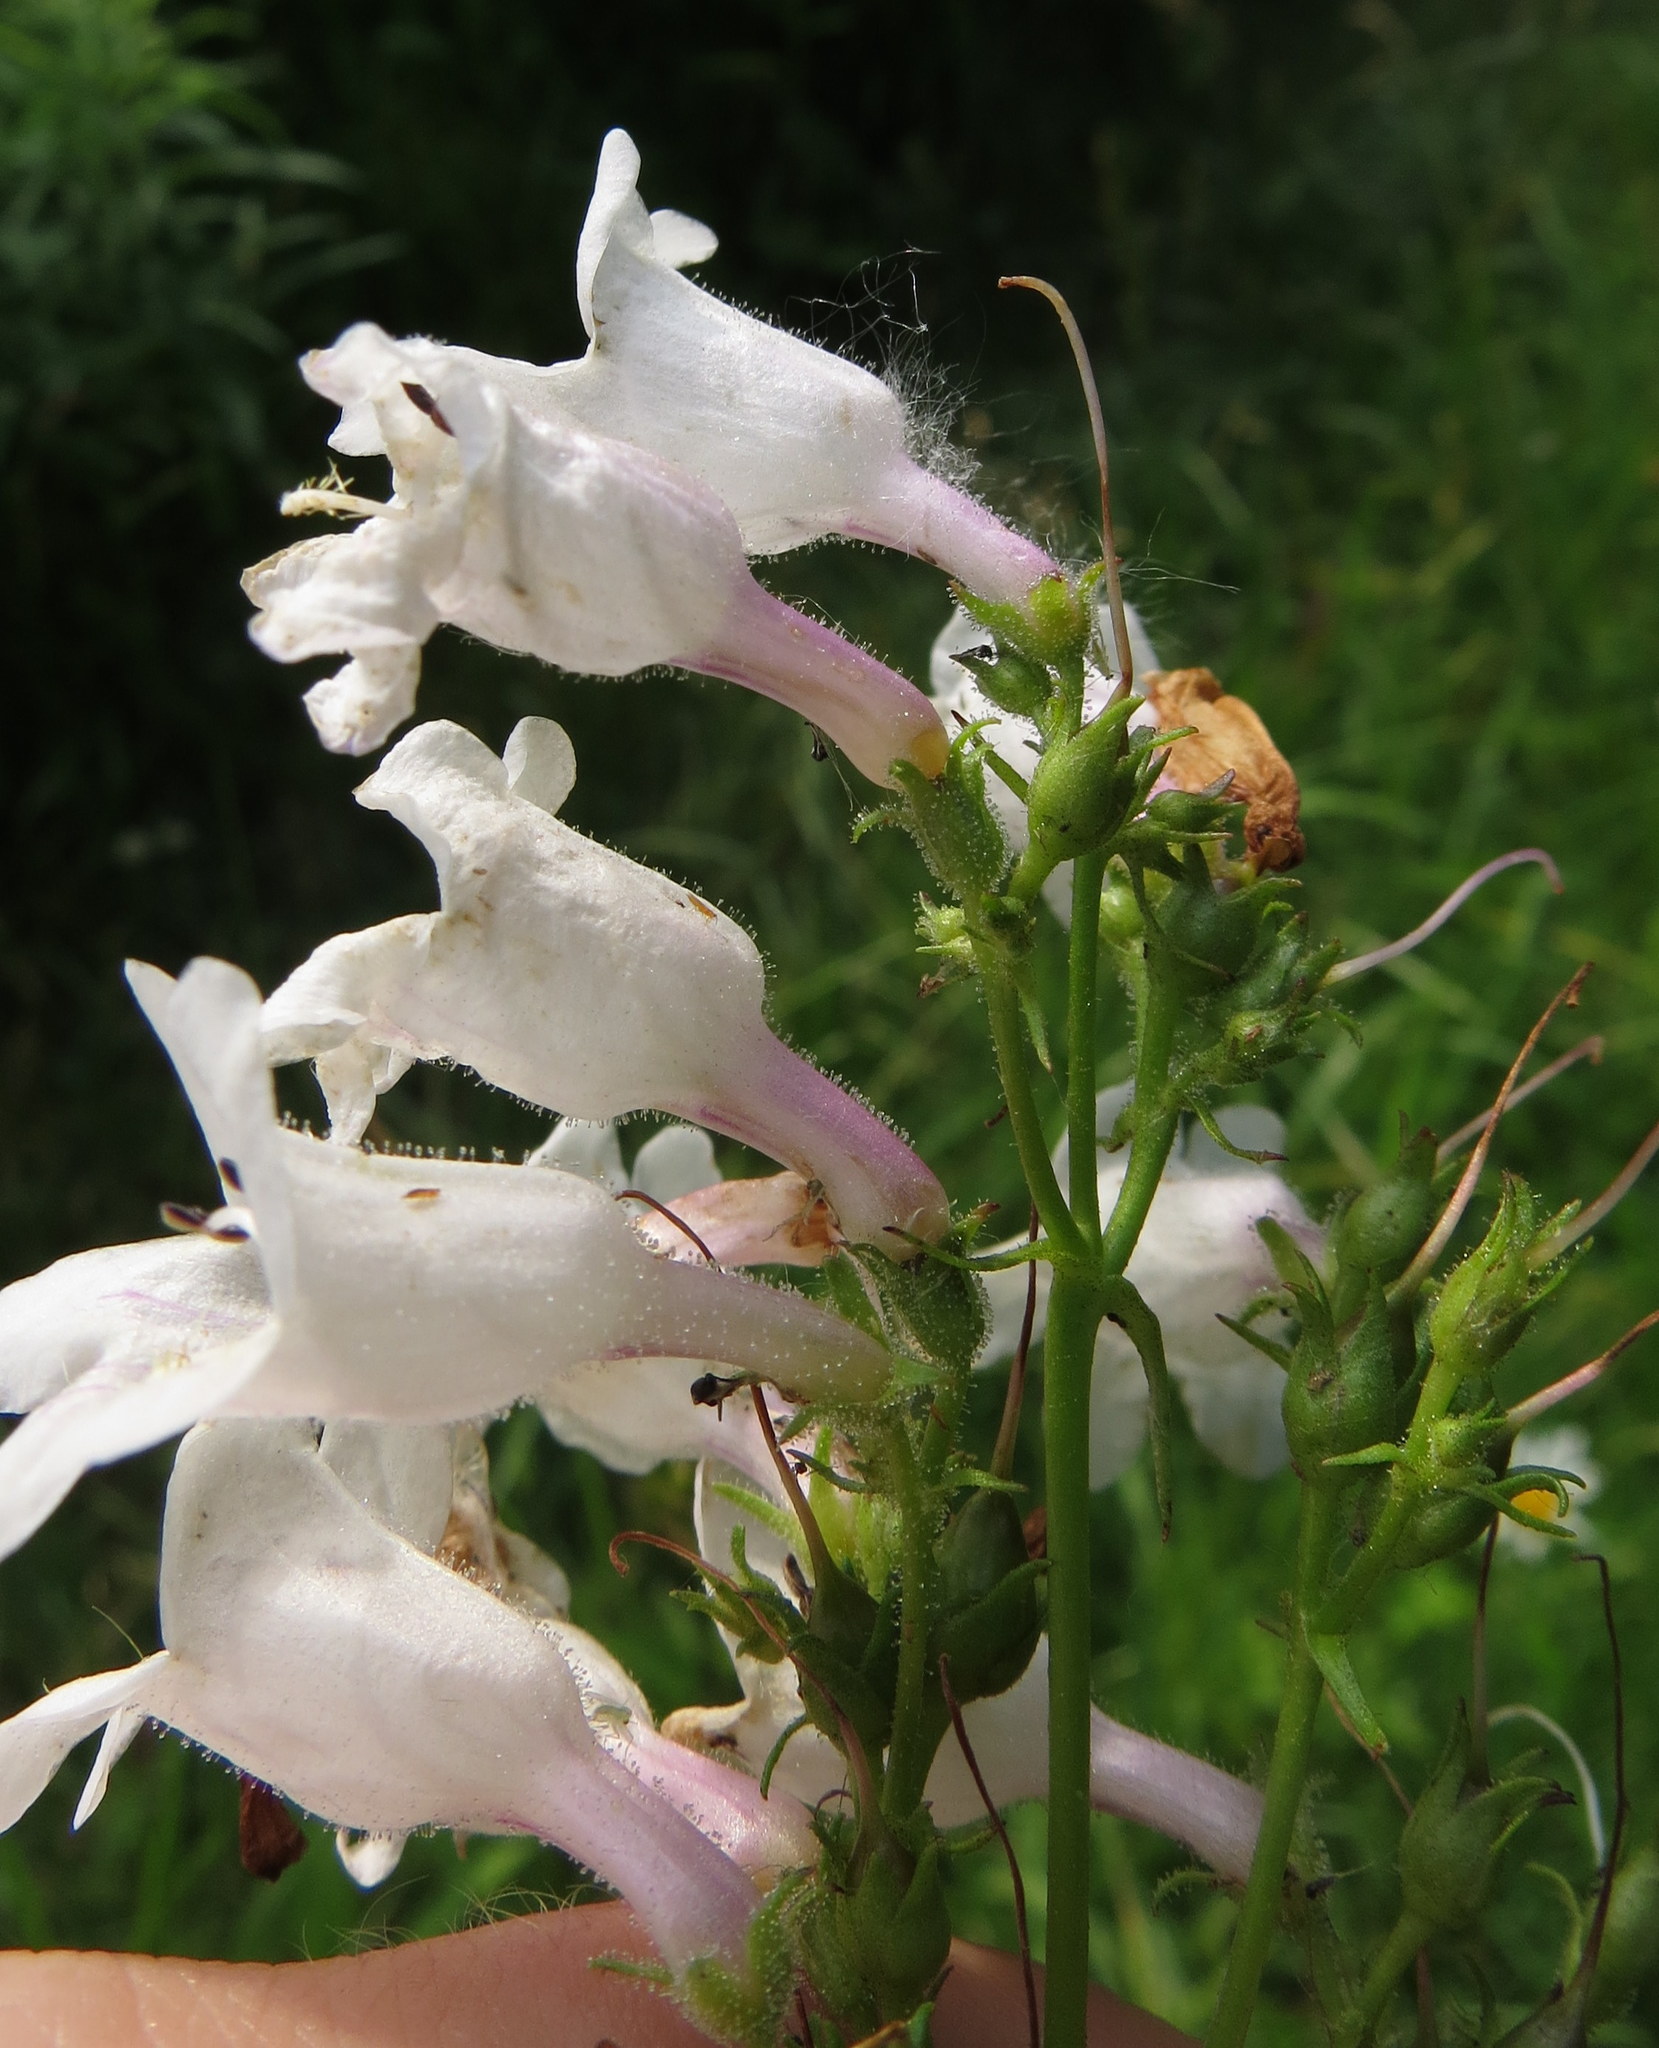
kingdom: Plantae
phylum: Tracheophyta
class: Magnoliopsida
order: Lamiales
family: Plantaginaceae
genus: Penstemon
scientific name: Penstemon digitalis
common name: Foxglove beardtongue
